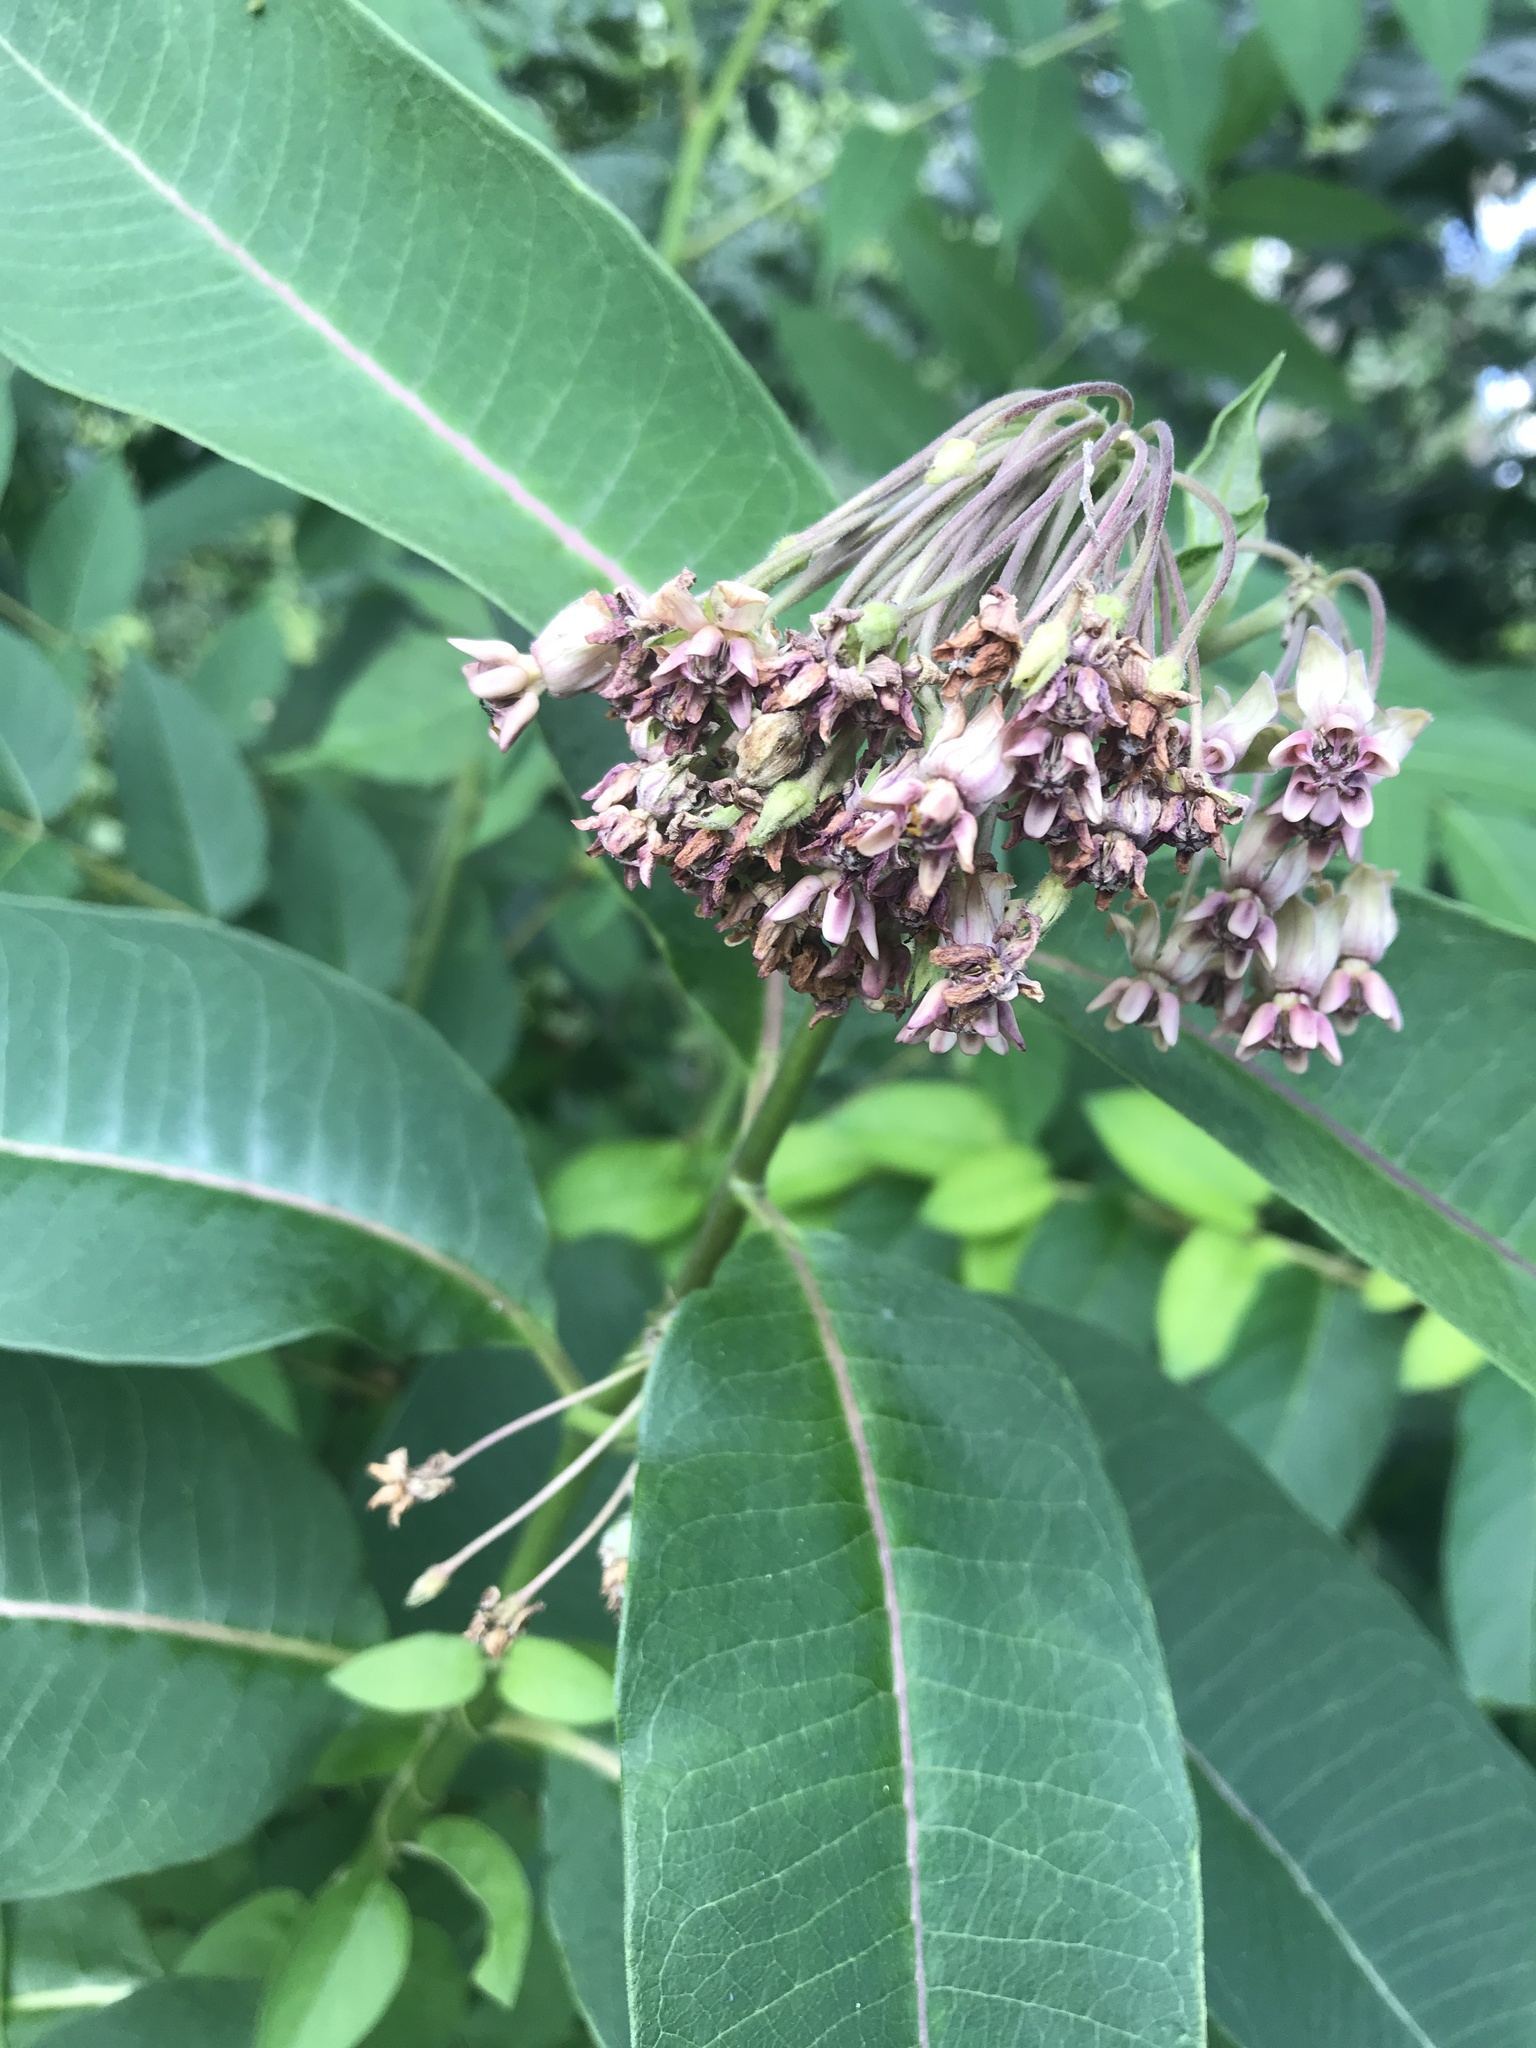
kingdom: Plantae
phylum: Tracheophyta
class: Magnoliopsida
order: Gentianales
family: Apocynaceae
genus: Asclepias
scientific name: Asclepias syriaca
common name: Common milkweed
